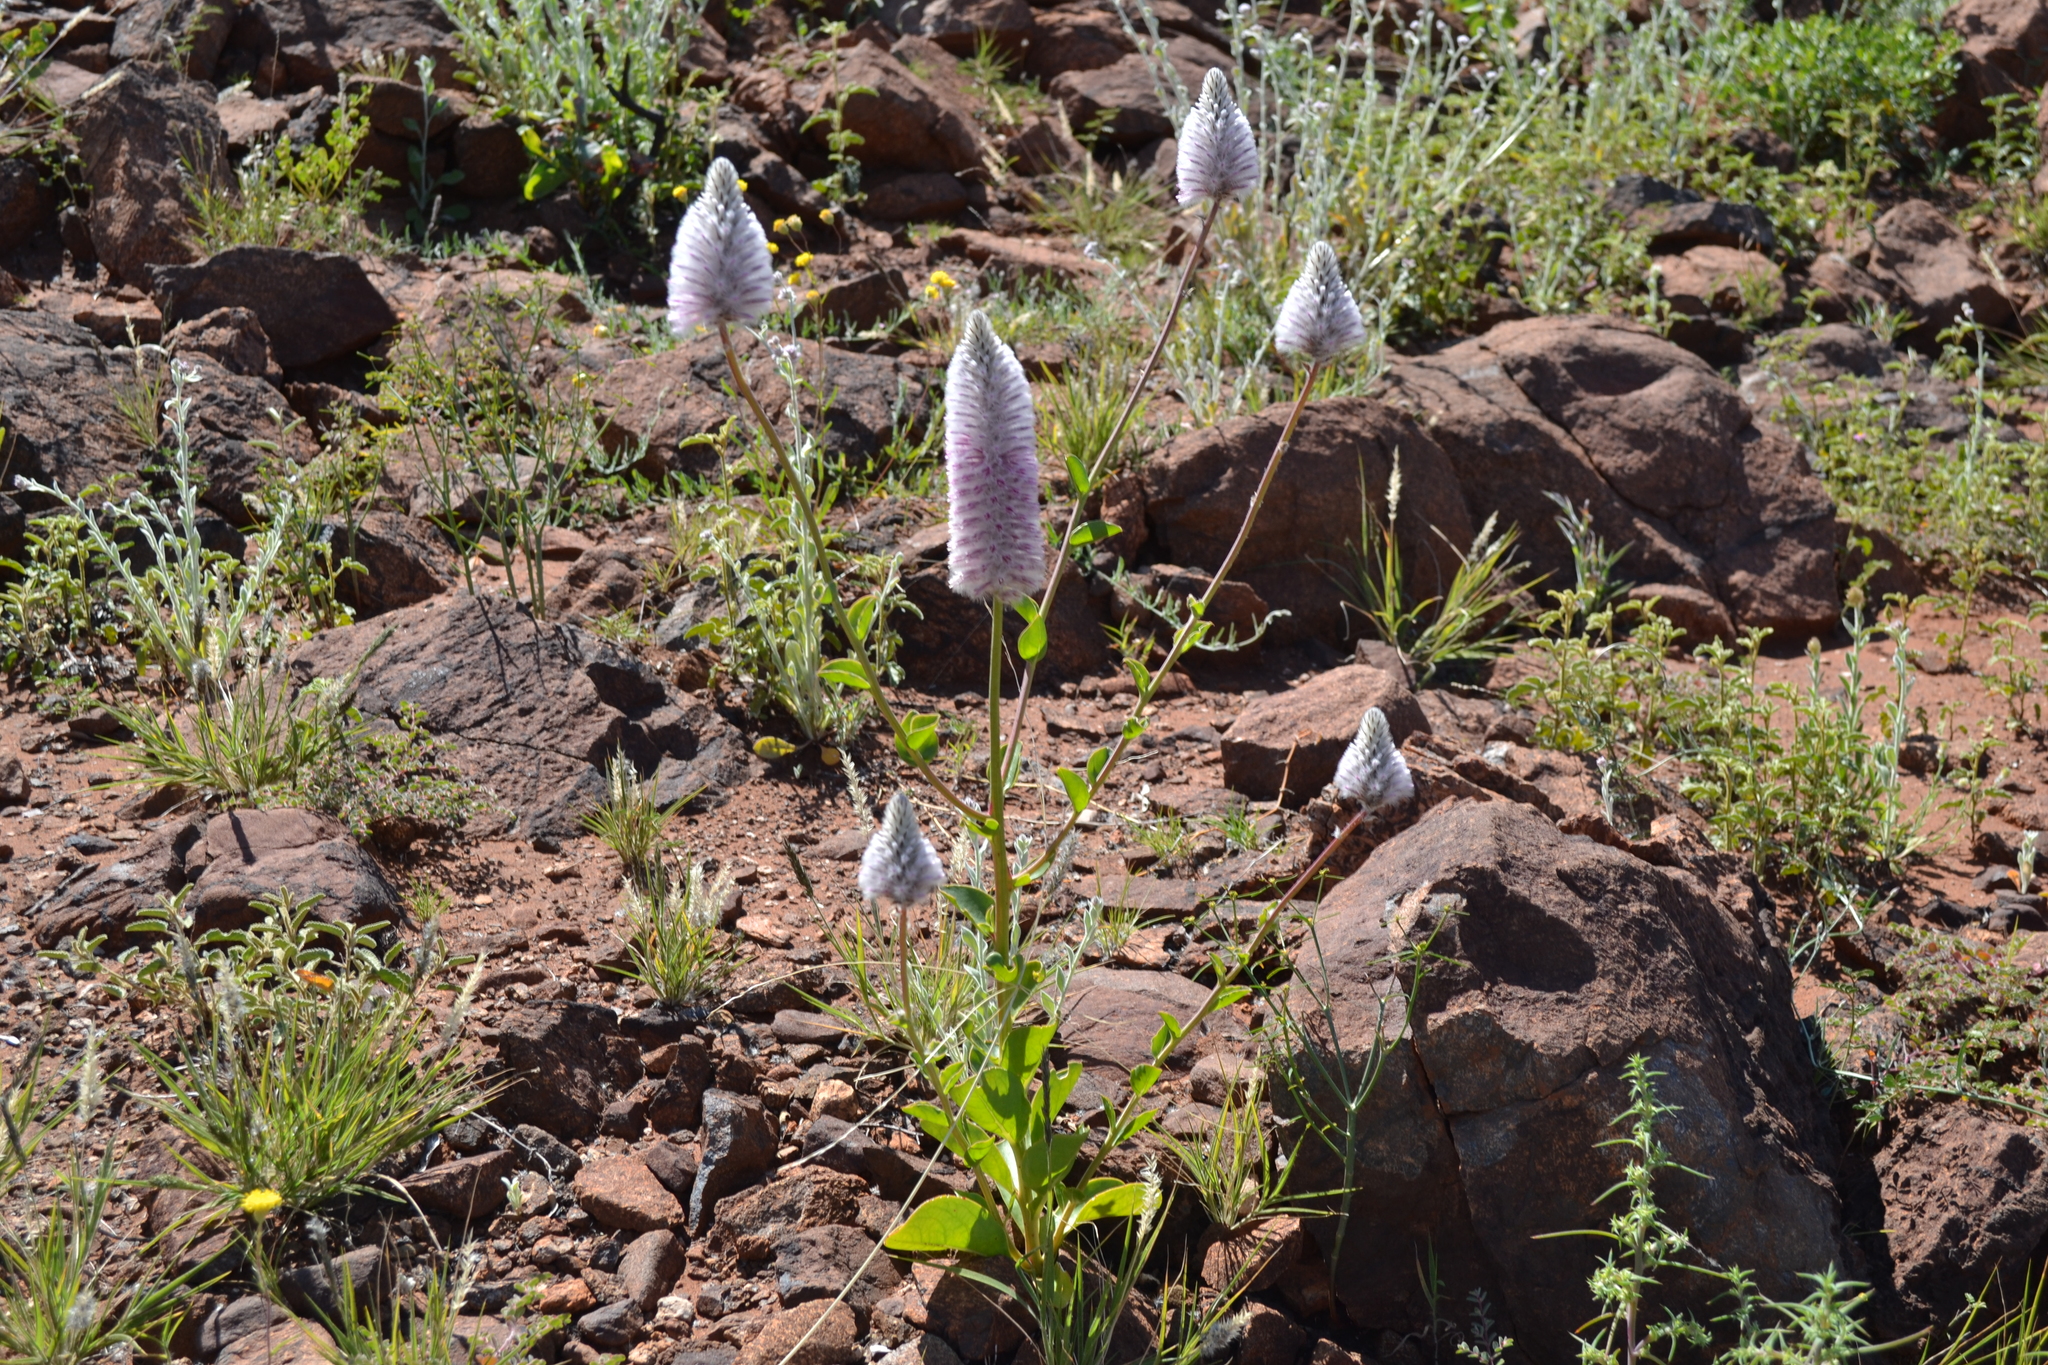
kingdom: Plantae
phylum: Tracheophyta
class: Magnoliopsida
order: Caryophyllales
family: Amaranthaceae
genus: Ptilotus
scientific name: Ptilotus exaltatus
